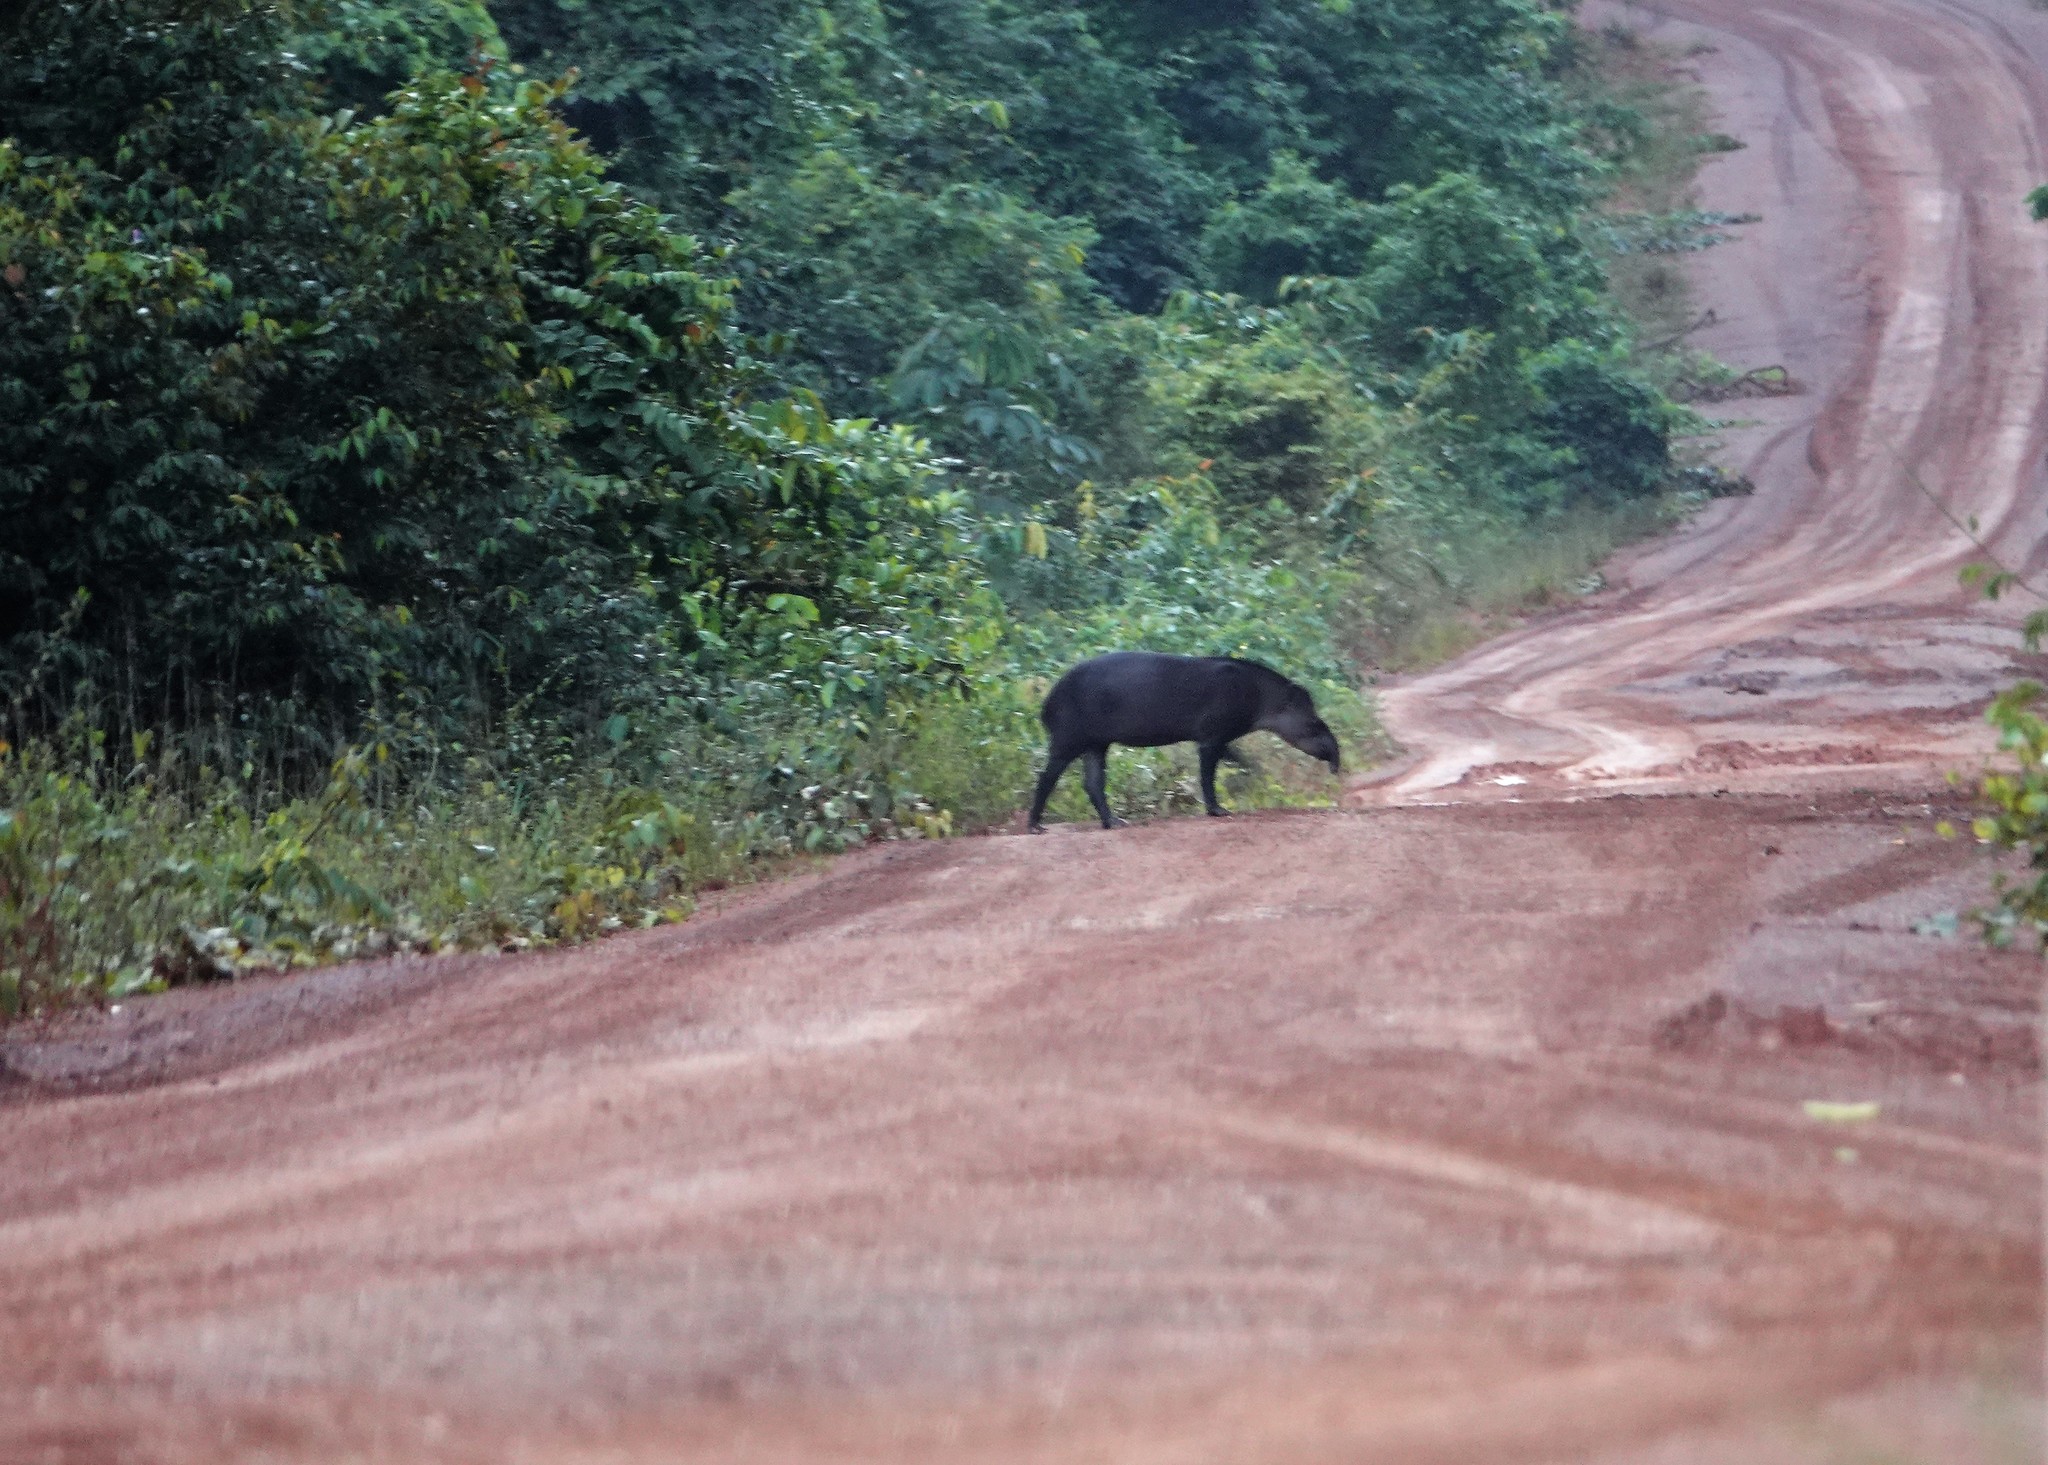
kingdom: Animalia
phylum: Chordata
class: Mammalia
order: Perissodactyla
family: Tapiridae
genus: Tapirus
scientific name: Tapirus terrestris
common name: Brazilian tapir
